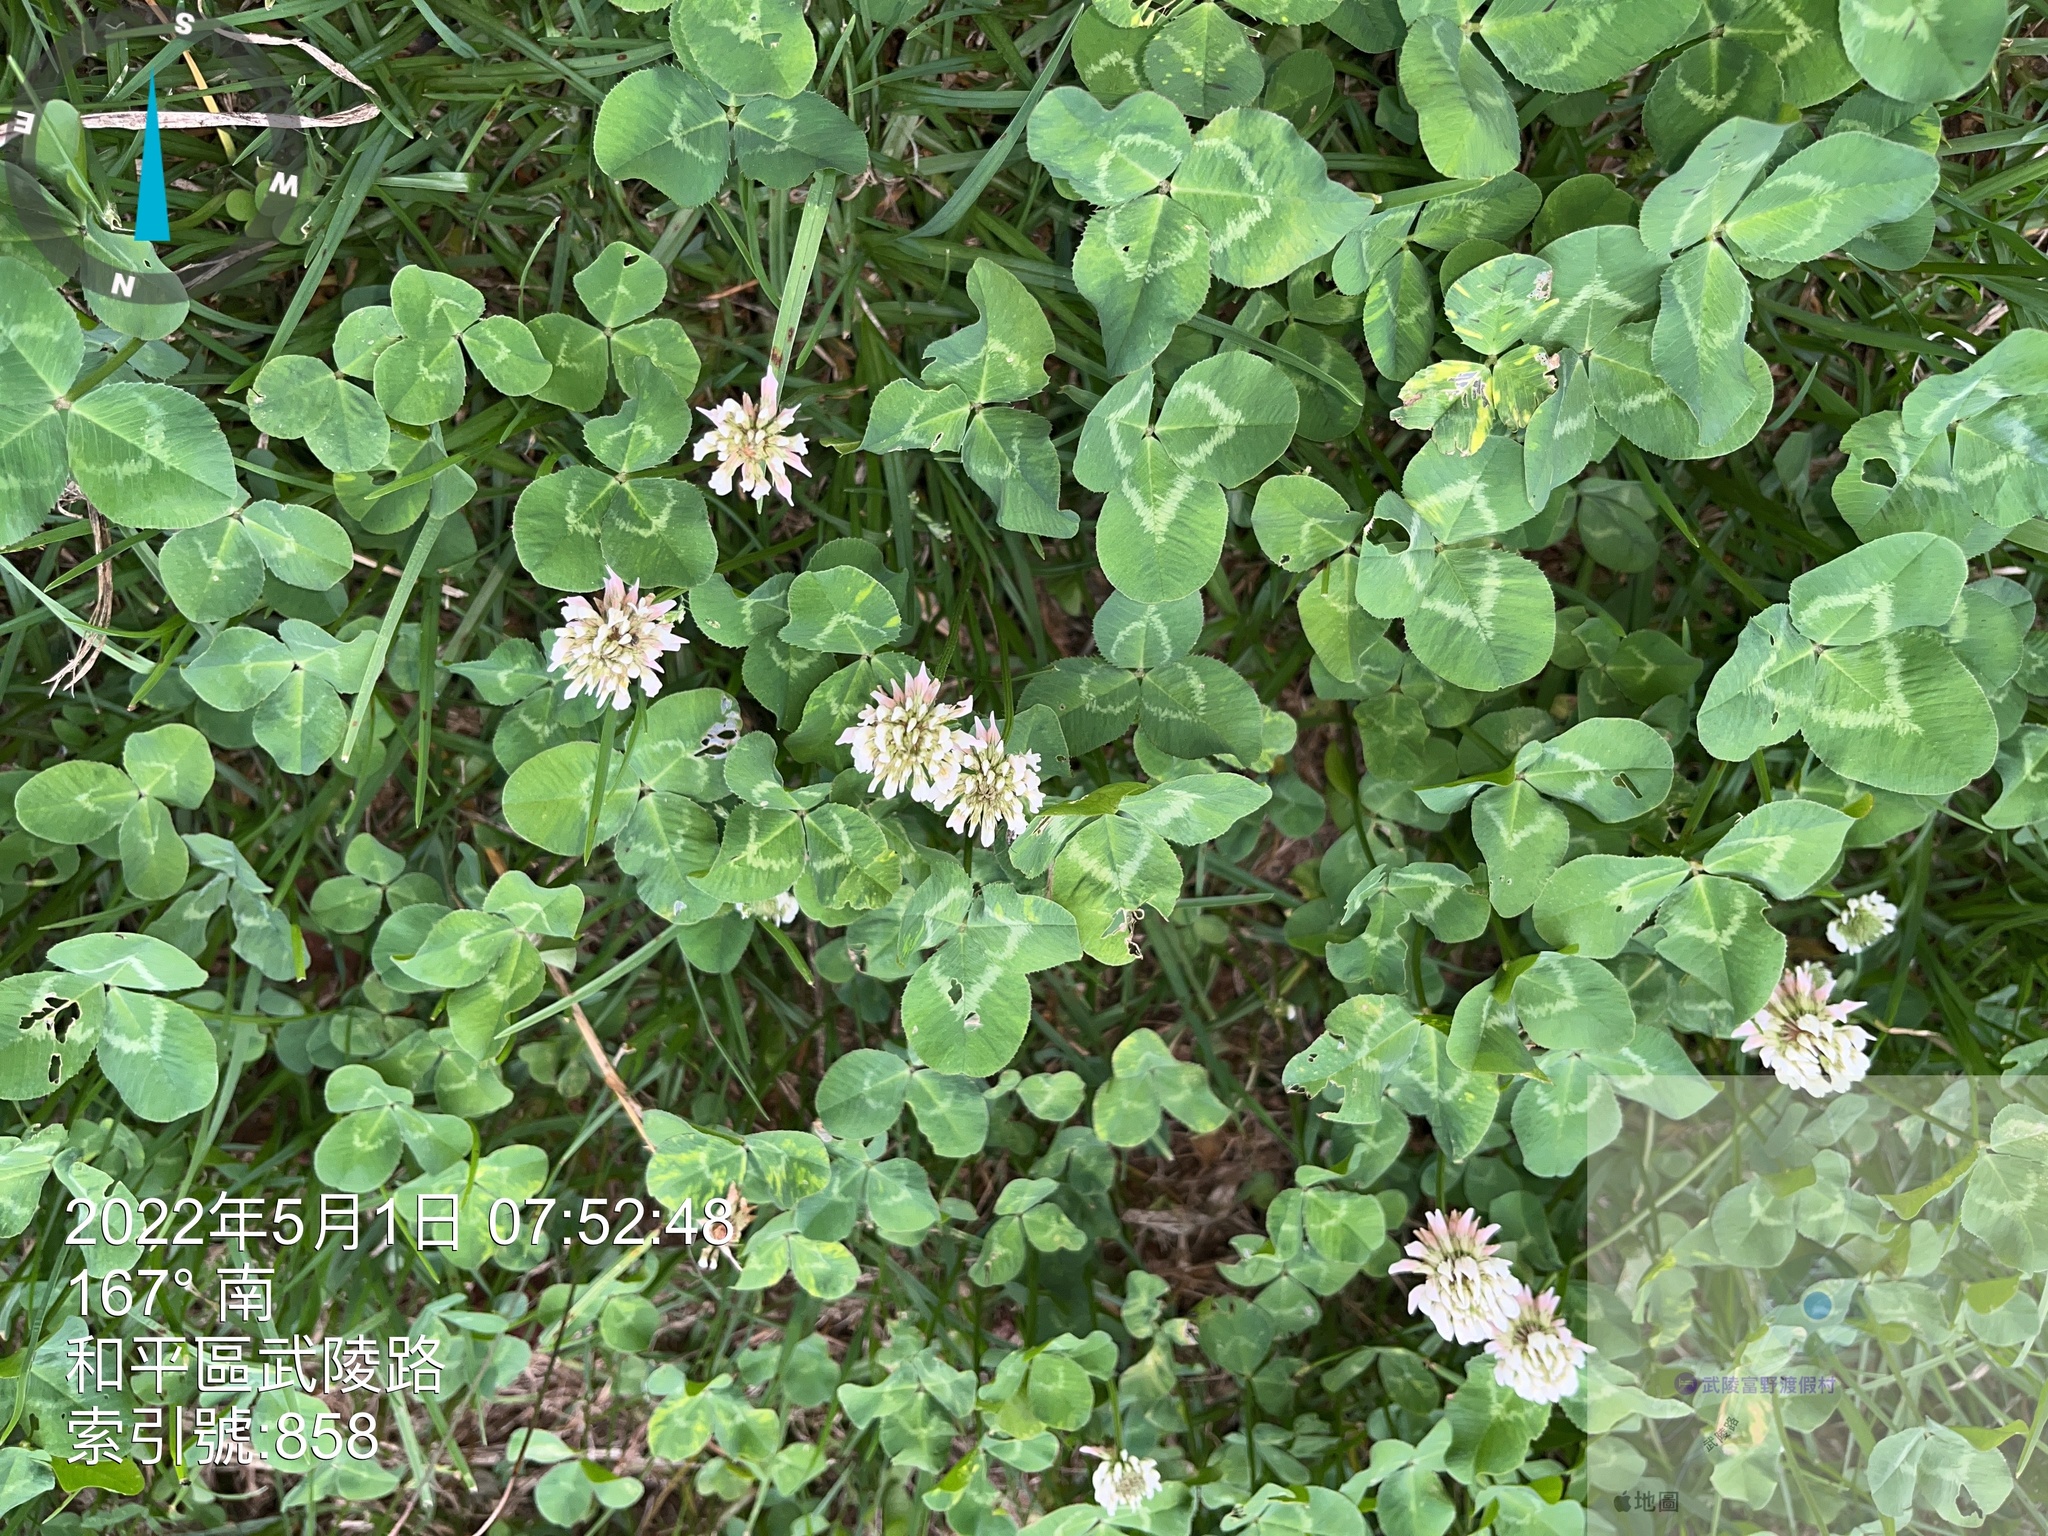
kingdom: Plantae
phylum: Tracheophyta
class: Magnoliopsida
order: Fabales
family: Fabaceae
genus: Trifolium
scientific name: Trifolium repens
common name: White clover
